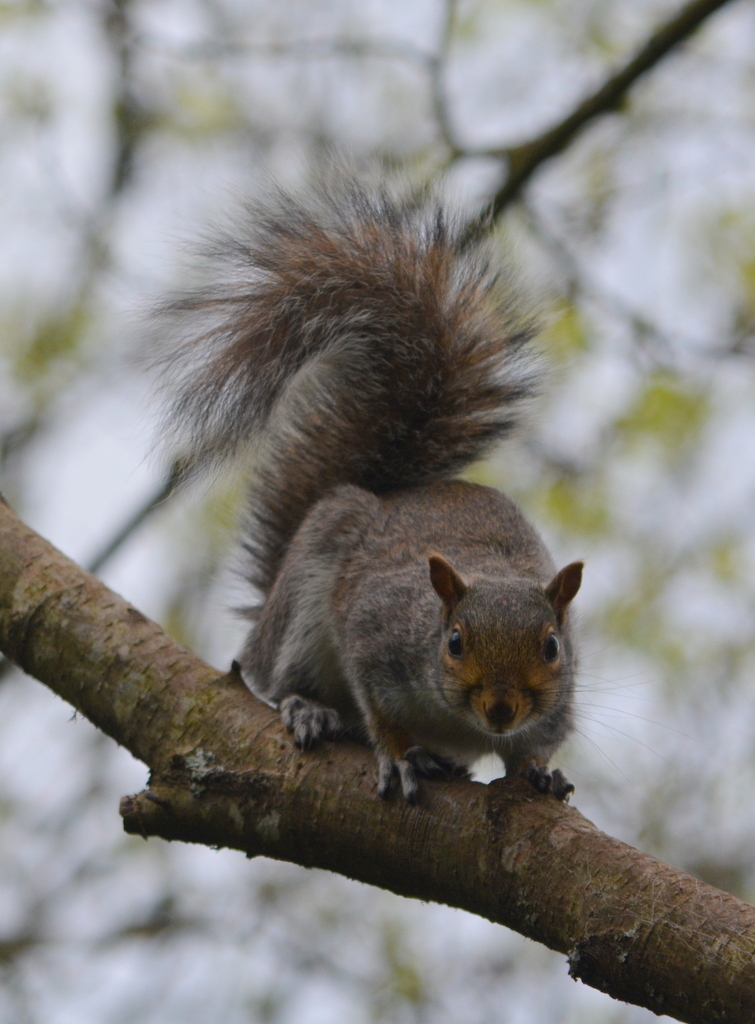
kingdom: Animalia
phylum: Chordata
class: Mammalia
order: Rodentia
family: Sciuridae
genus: Sciurus
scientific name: Sciurus carolinensis
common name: Eastern gray squirrel
